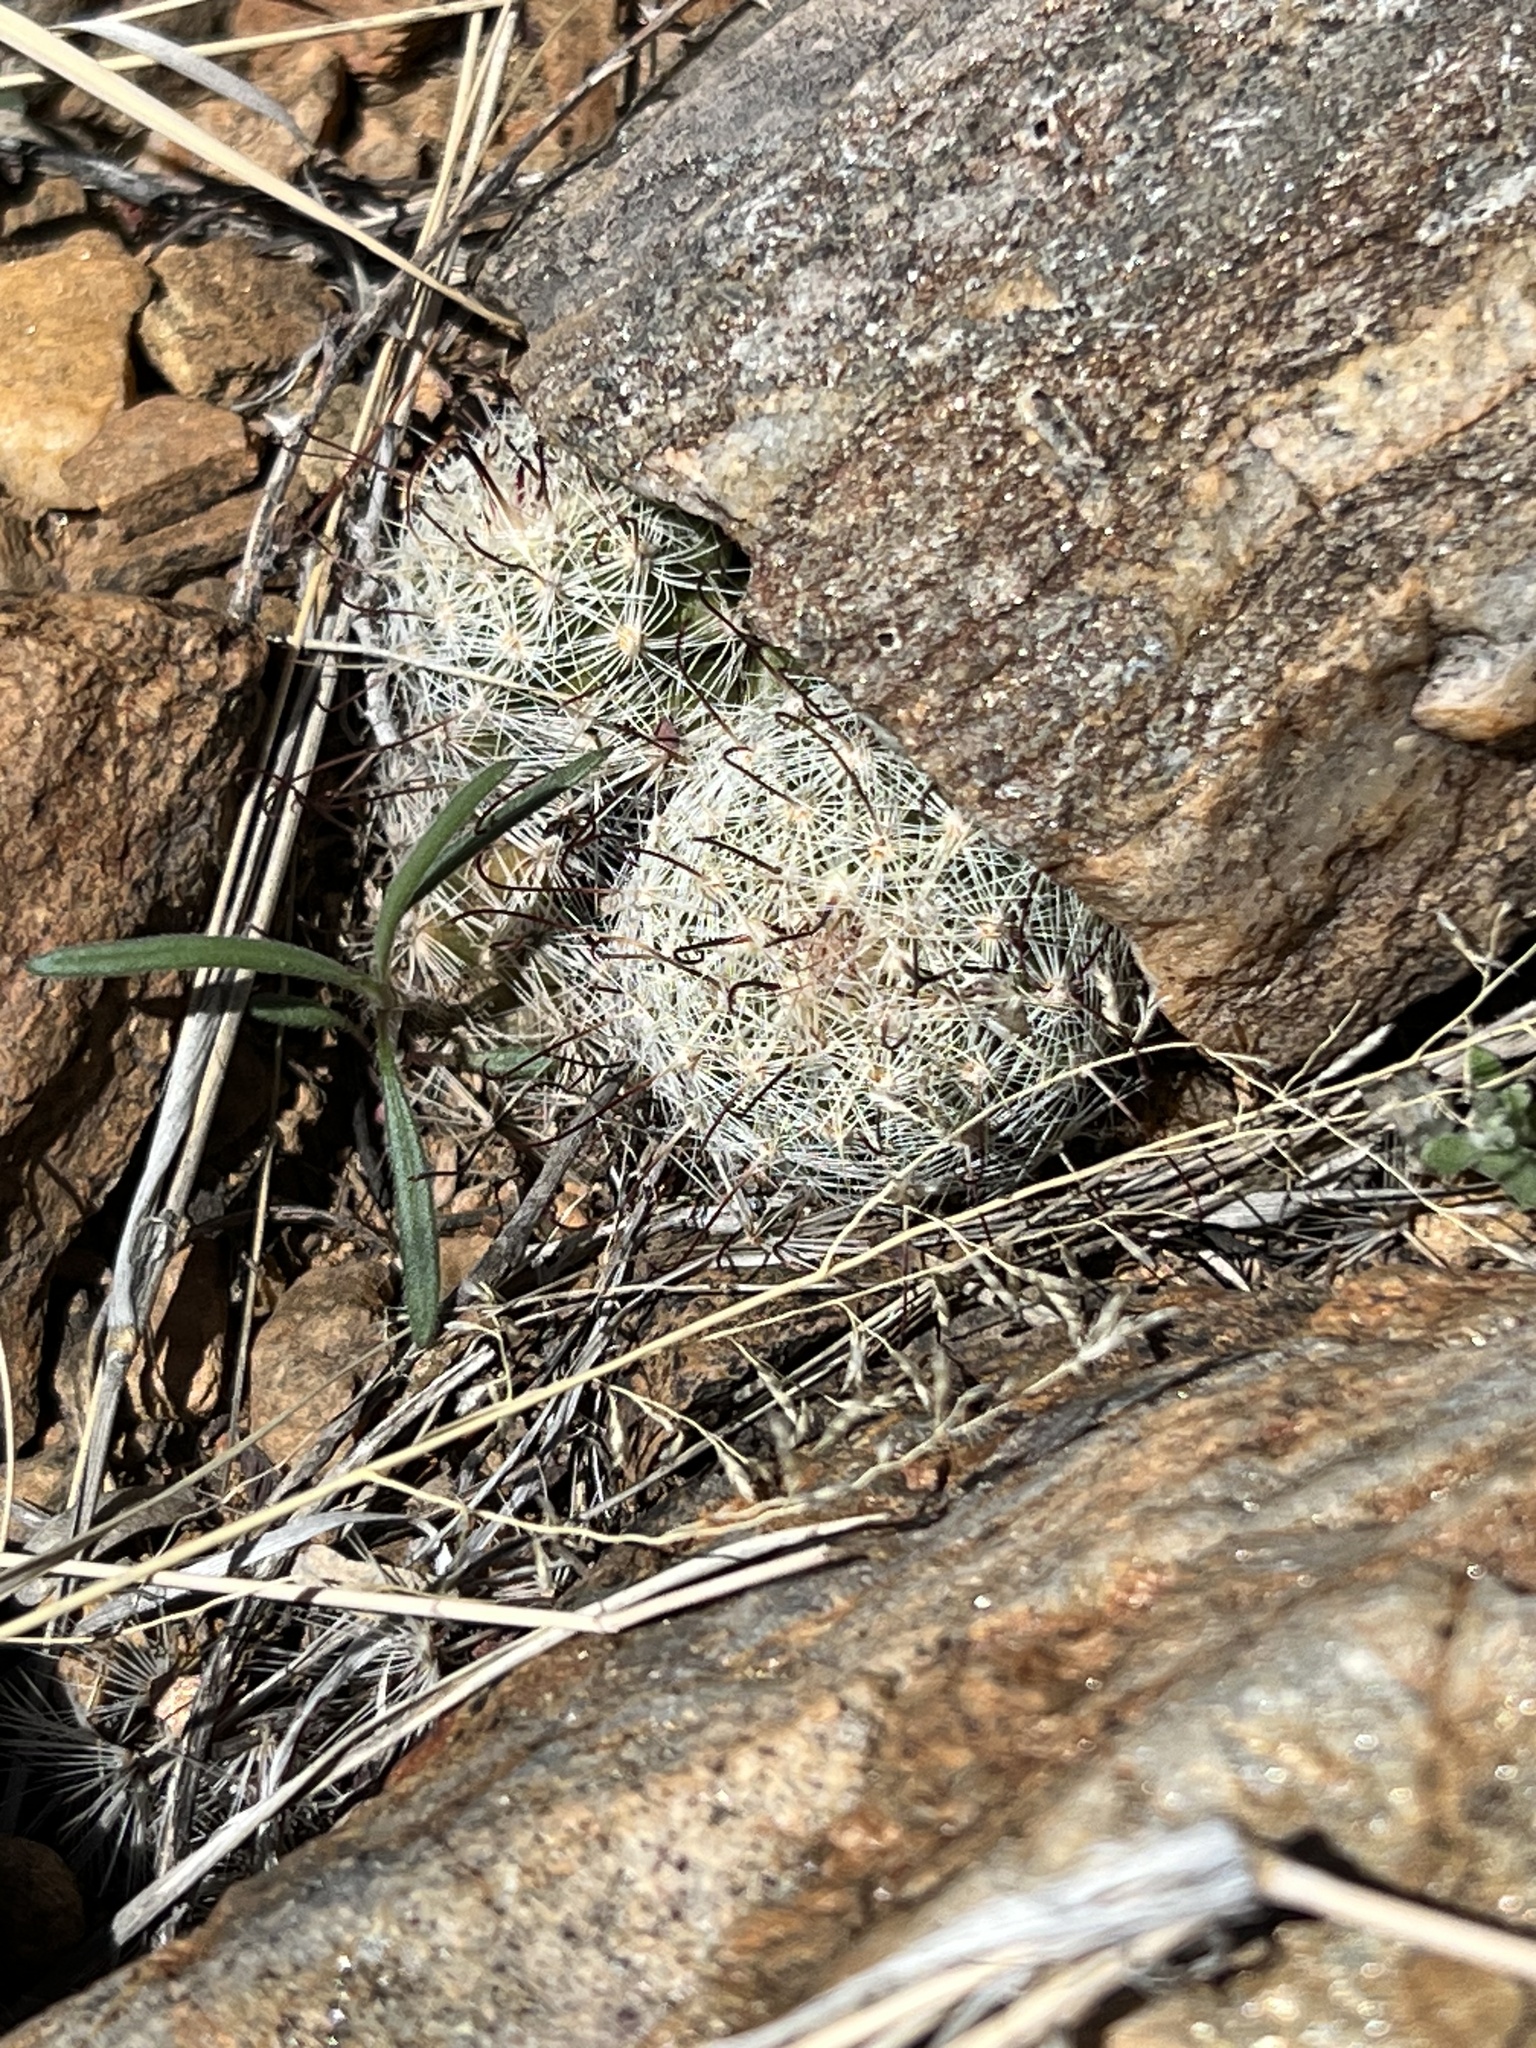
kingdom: Plantae
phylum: Tracheophyta
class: Magnoliopsida
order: Caryophyllales
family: Cactaceae
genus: Cochemiea
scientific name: Cochemiea grahamii
